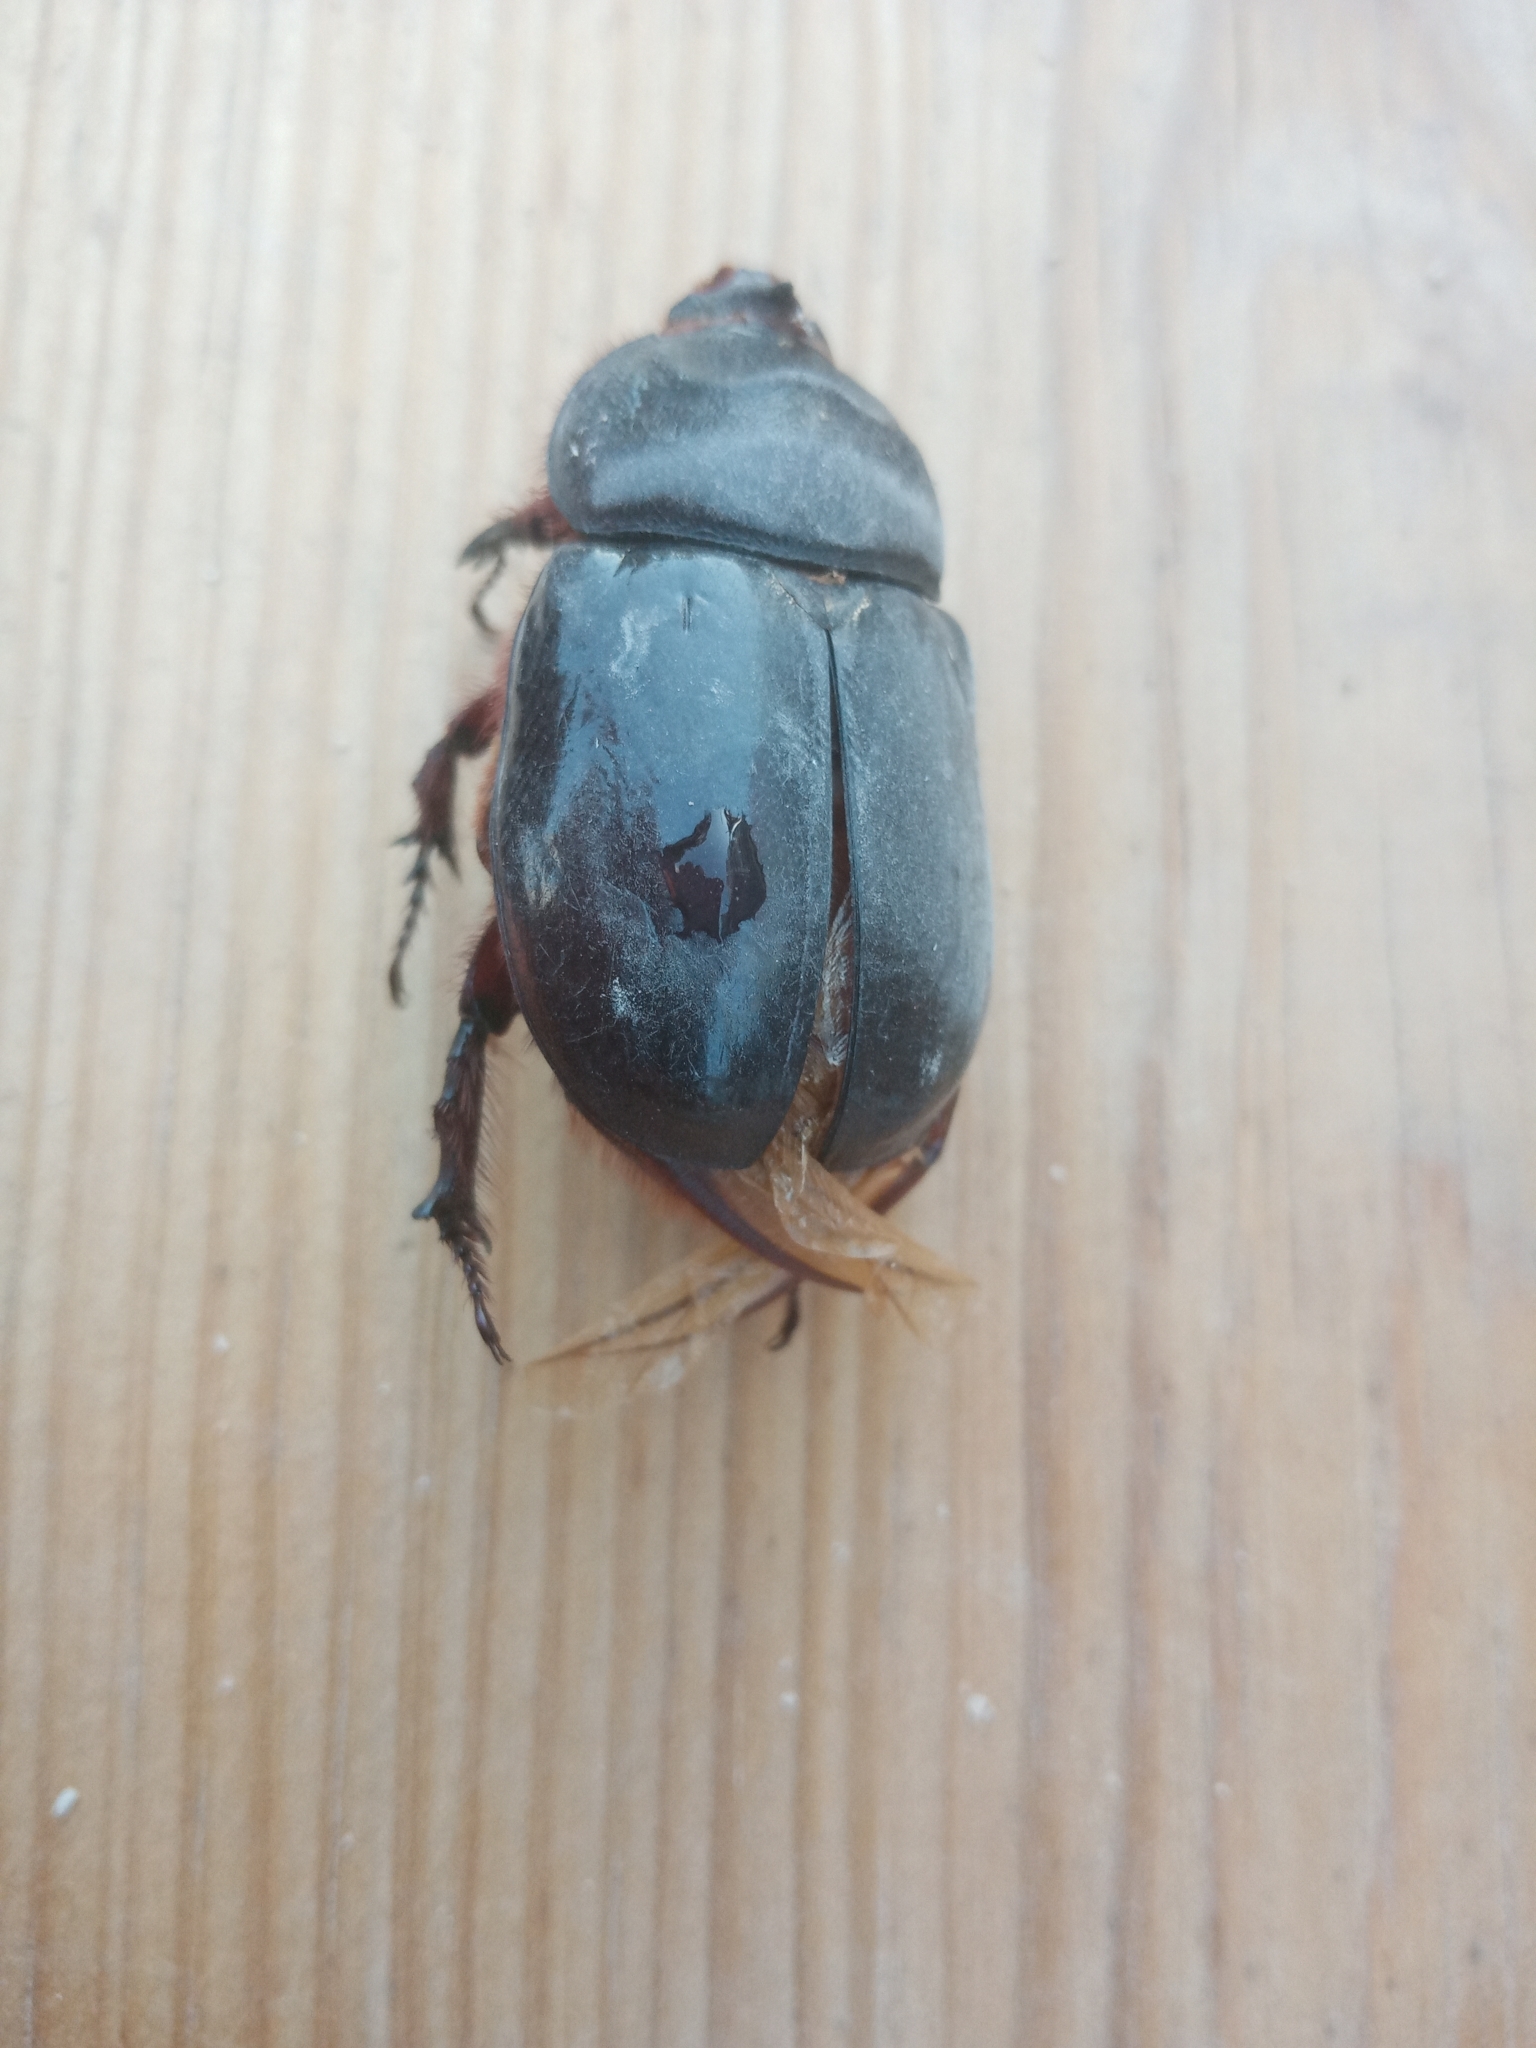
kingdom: Animalia
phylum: Arthropoda
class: Insecta
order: Coleoptera
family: Scarabaeidae
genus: Oryctes
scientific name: Oryctes nasicornis
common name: European rhinoceros beetle
